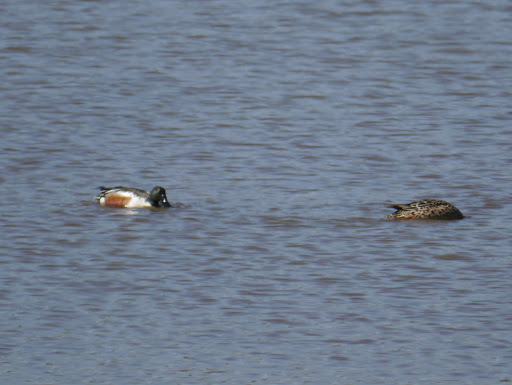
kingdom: Animalia
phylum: Chordata
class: Aves
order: Anseriformes
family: Anatidae
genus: Spatula
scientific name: Spatula clypeata
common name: Northern shoveler
